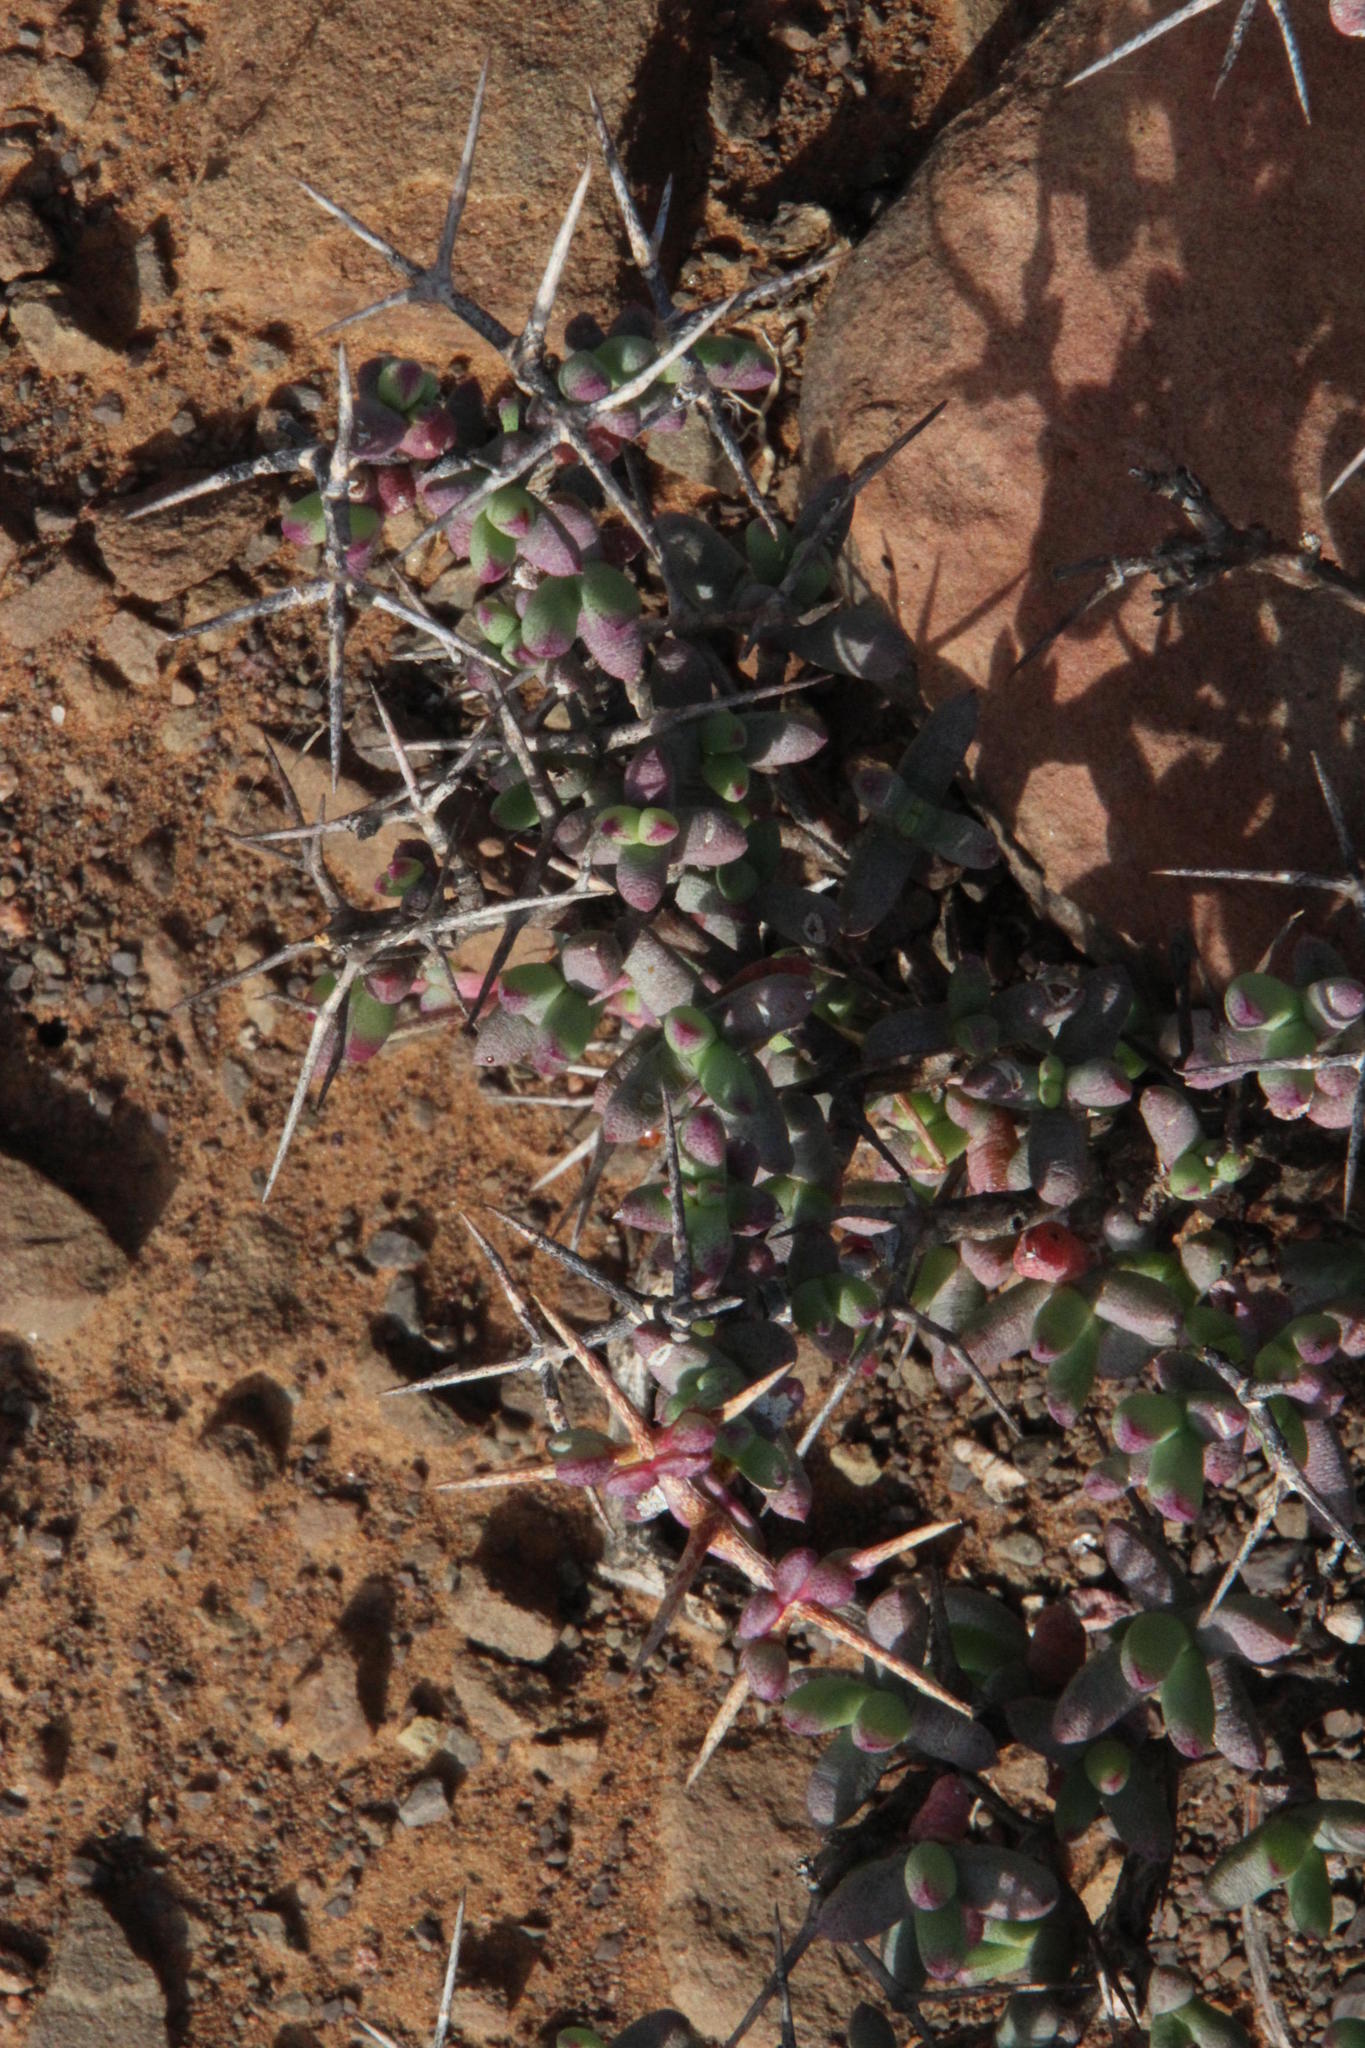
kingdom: Plantae
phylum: Tracheophyta
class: Magnoliopsida
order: Caryophyllales
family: Aizoaceae
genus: Ruschia
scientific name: Ruschia cradockensis
